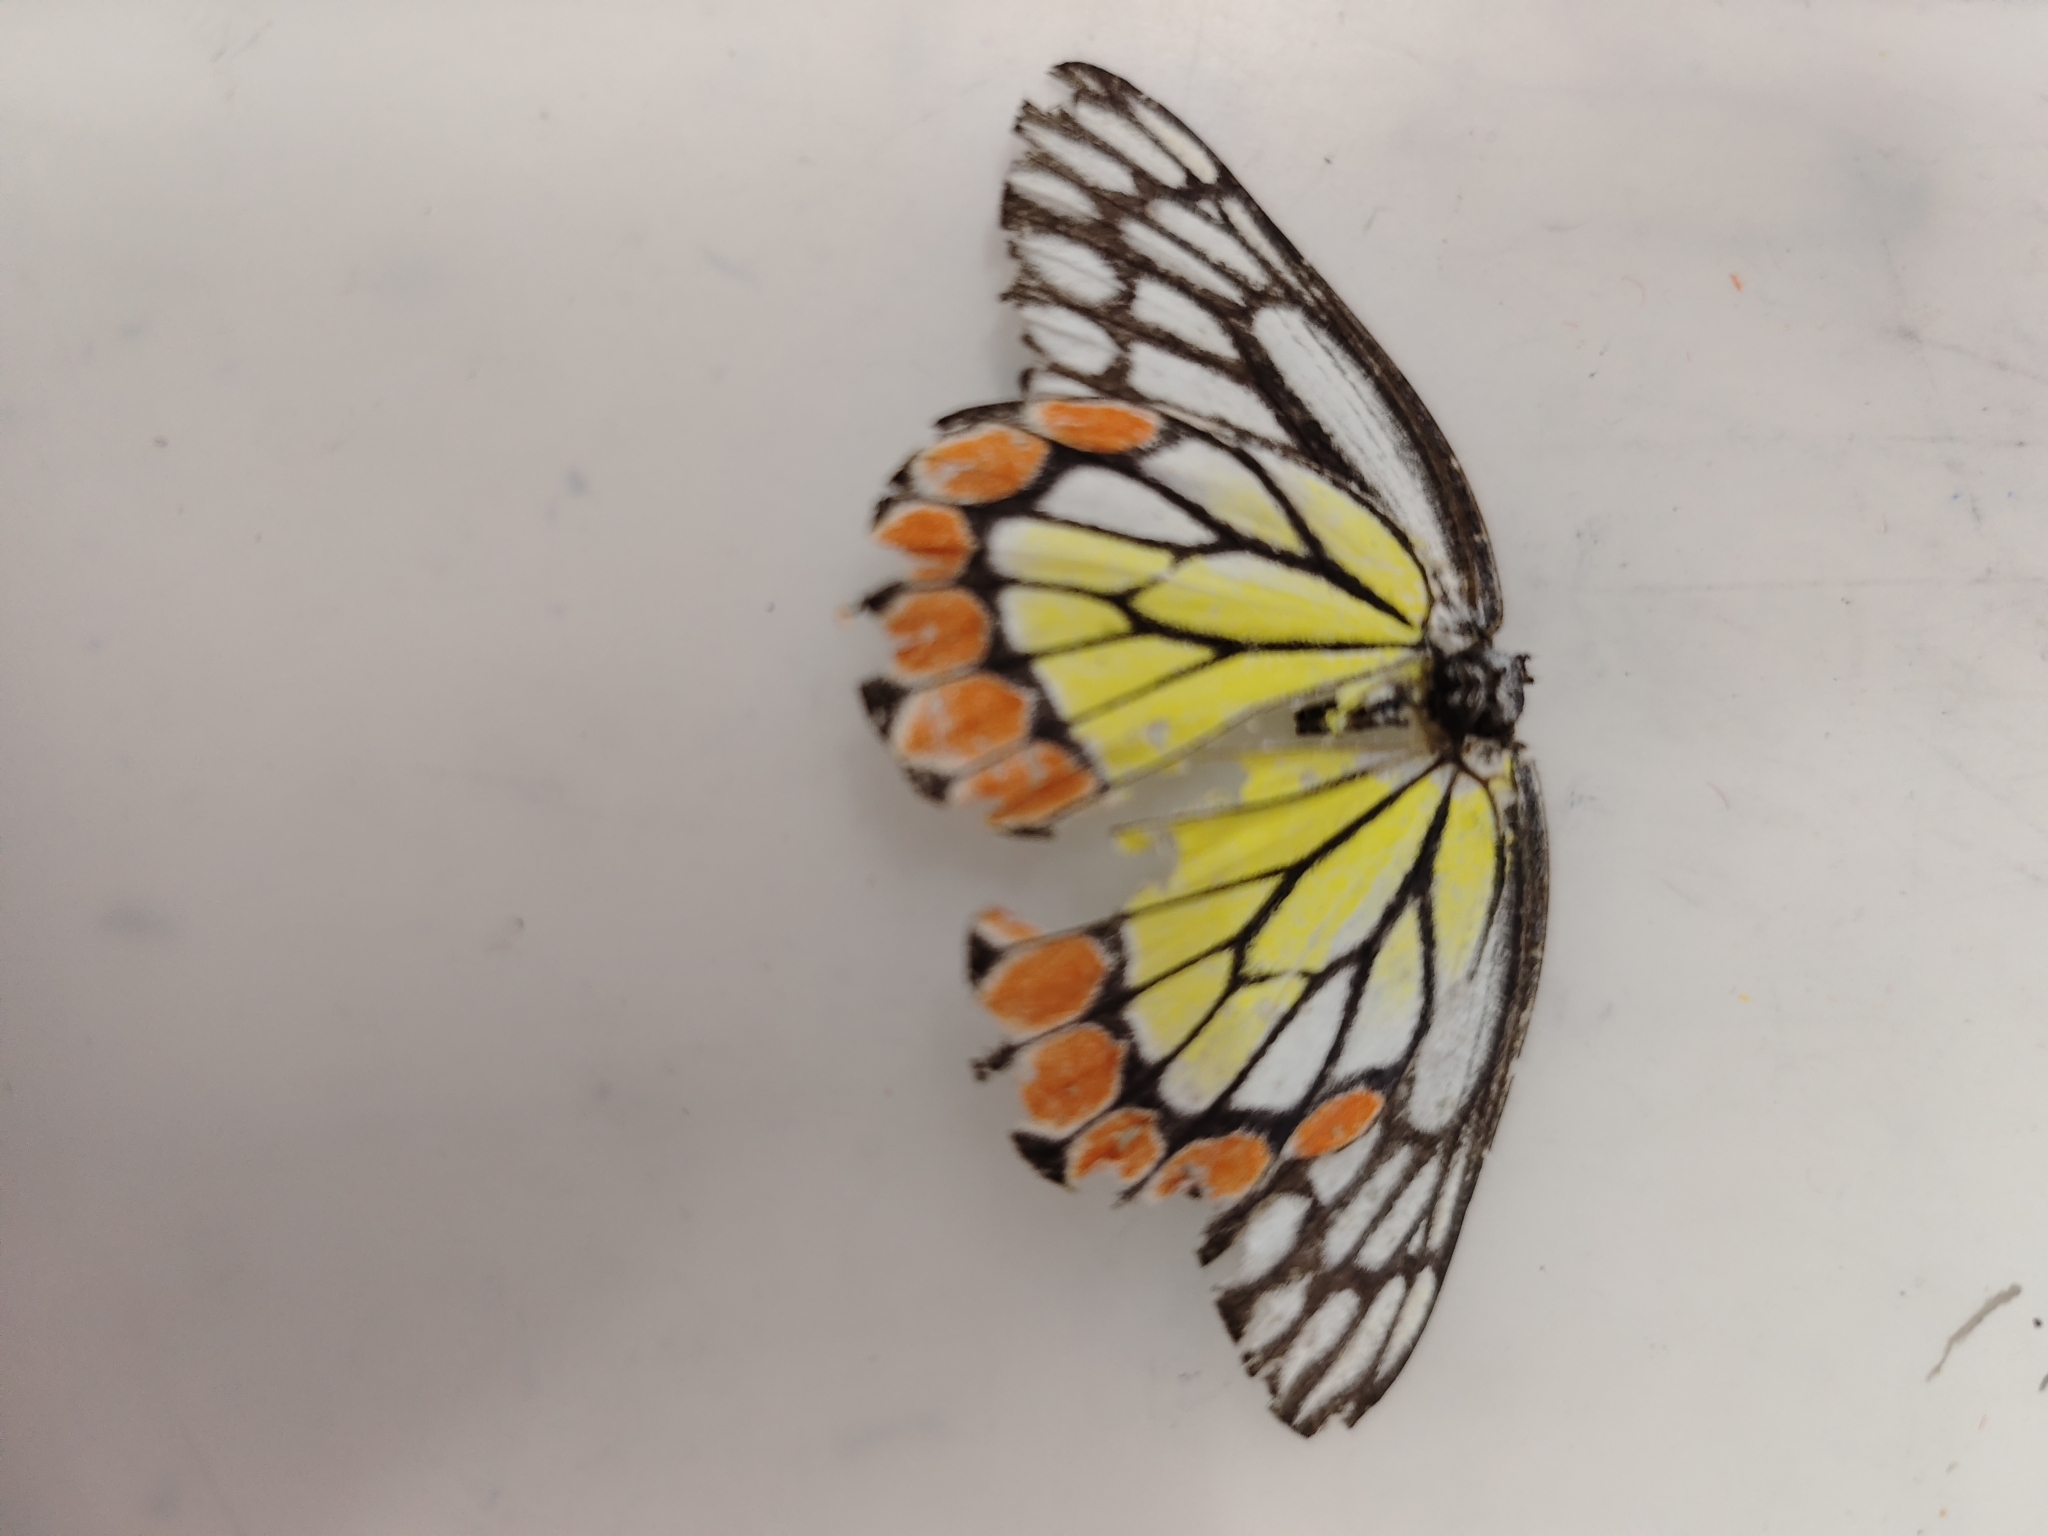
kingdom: Animalia
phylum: Arthropoda
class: Insecta
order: Lepidoptera
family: Pieridae
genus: Delias
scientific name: Delias eucharis
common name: Common jezebel
